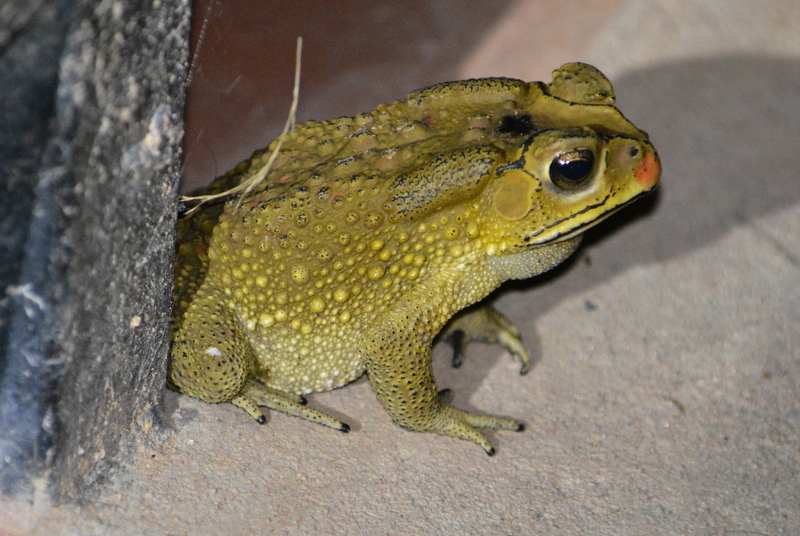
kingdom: Animalia
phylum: Chordata
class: Amphibia
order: Anura
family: Bufonidae
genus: Duttaphrynus
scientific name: Duttaphrynus melanostictus
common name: Common sunda toad
